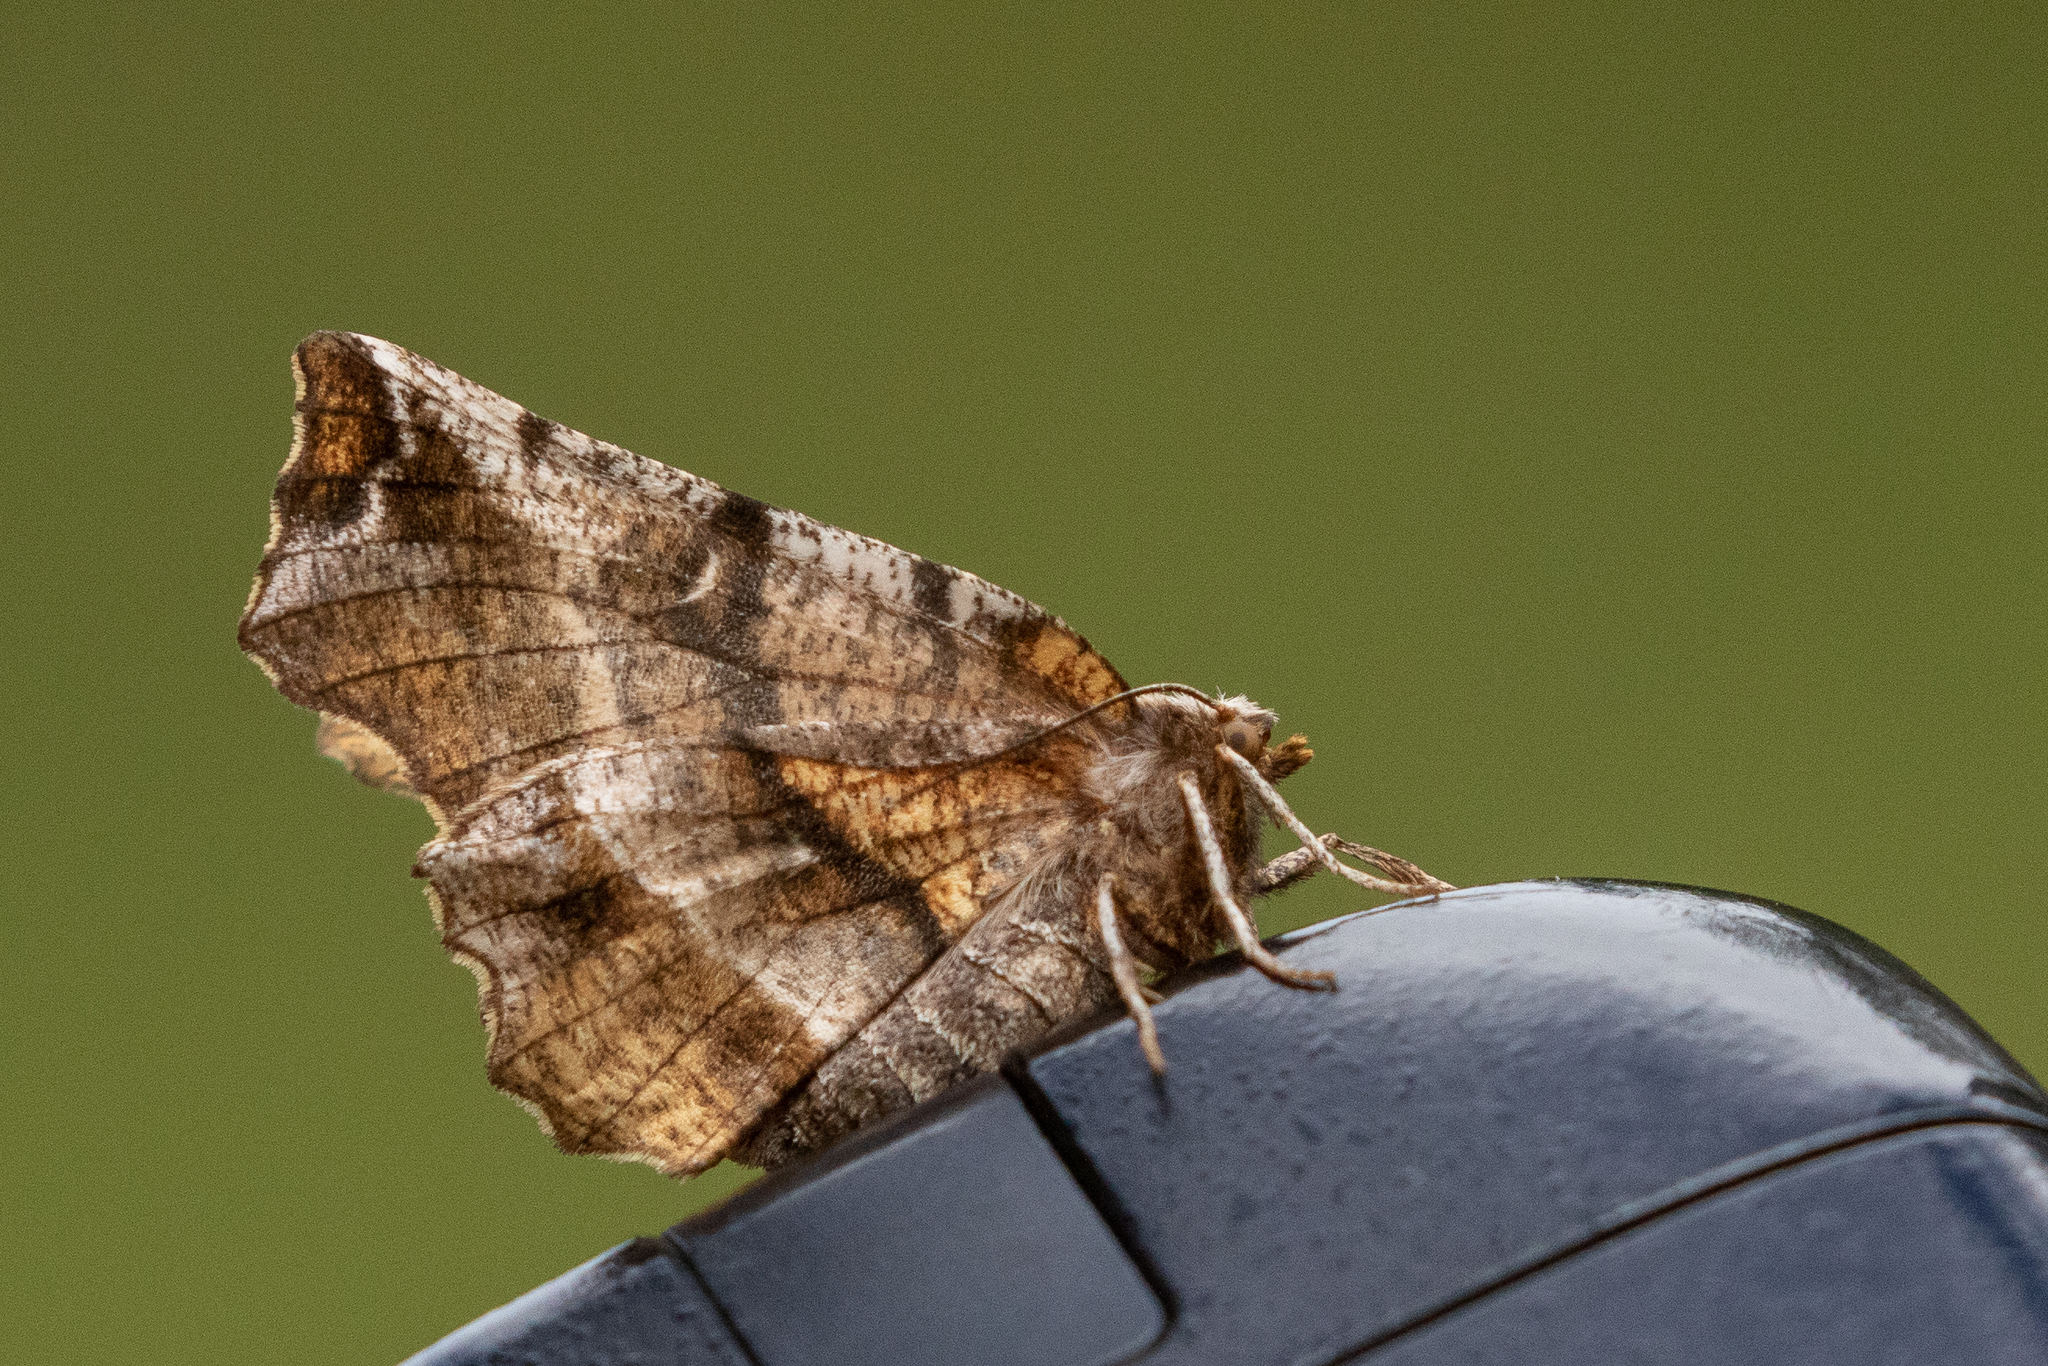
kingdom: Animalia
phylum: Arthropoda
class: Insecta
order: Lepidoptera
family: Geometridae
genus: Selenia
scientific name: Selenia alciphearia
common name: Brown-tipped thorn
